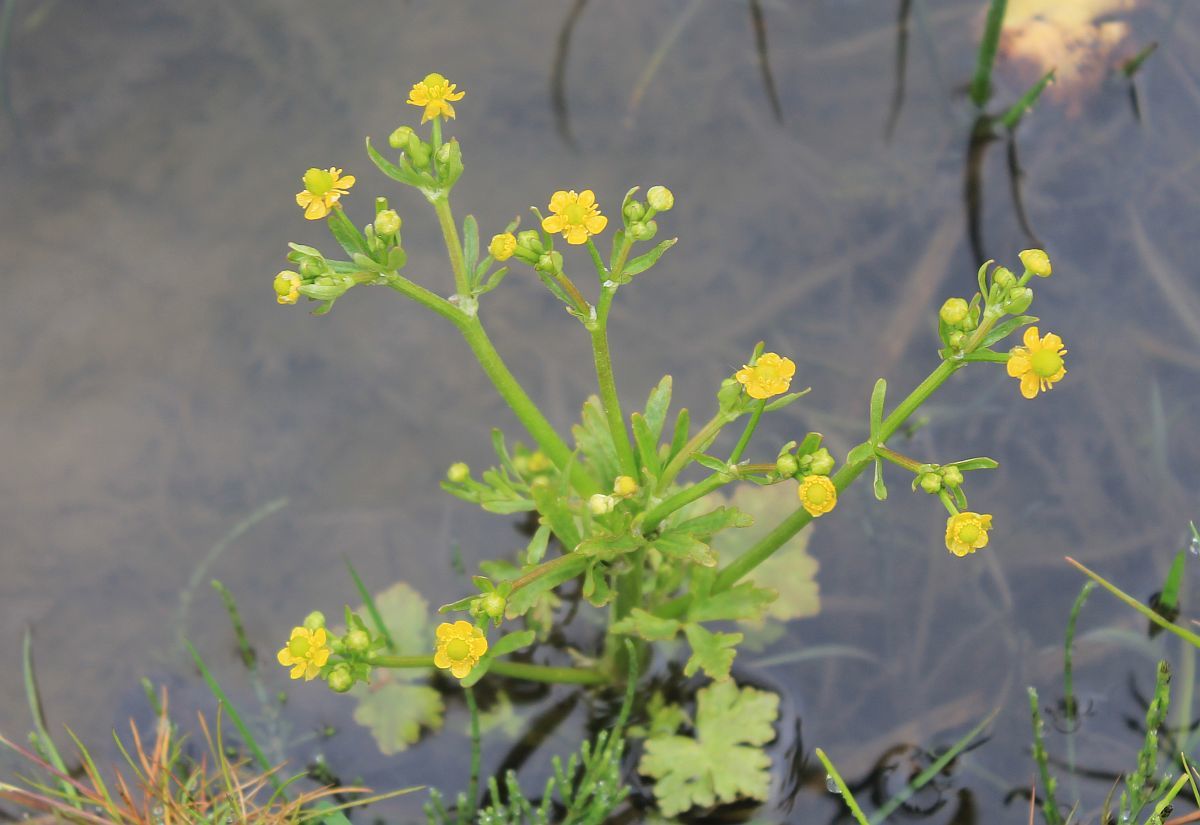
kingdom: Plantae
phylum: Tracheophyta
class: Magnoliopsida
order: Ranunculales
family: Ranunculaceae
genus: Ranunculus
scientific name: Ranunculus sceleratus
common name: Celery-leaved buttercup
